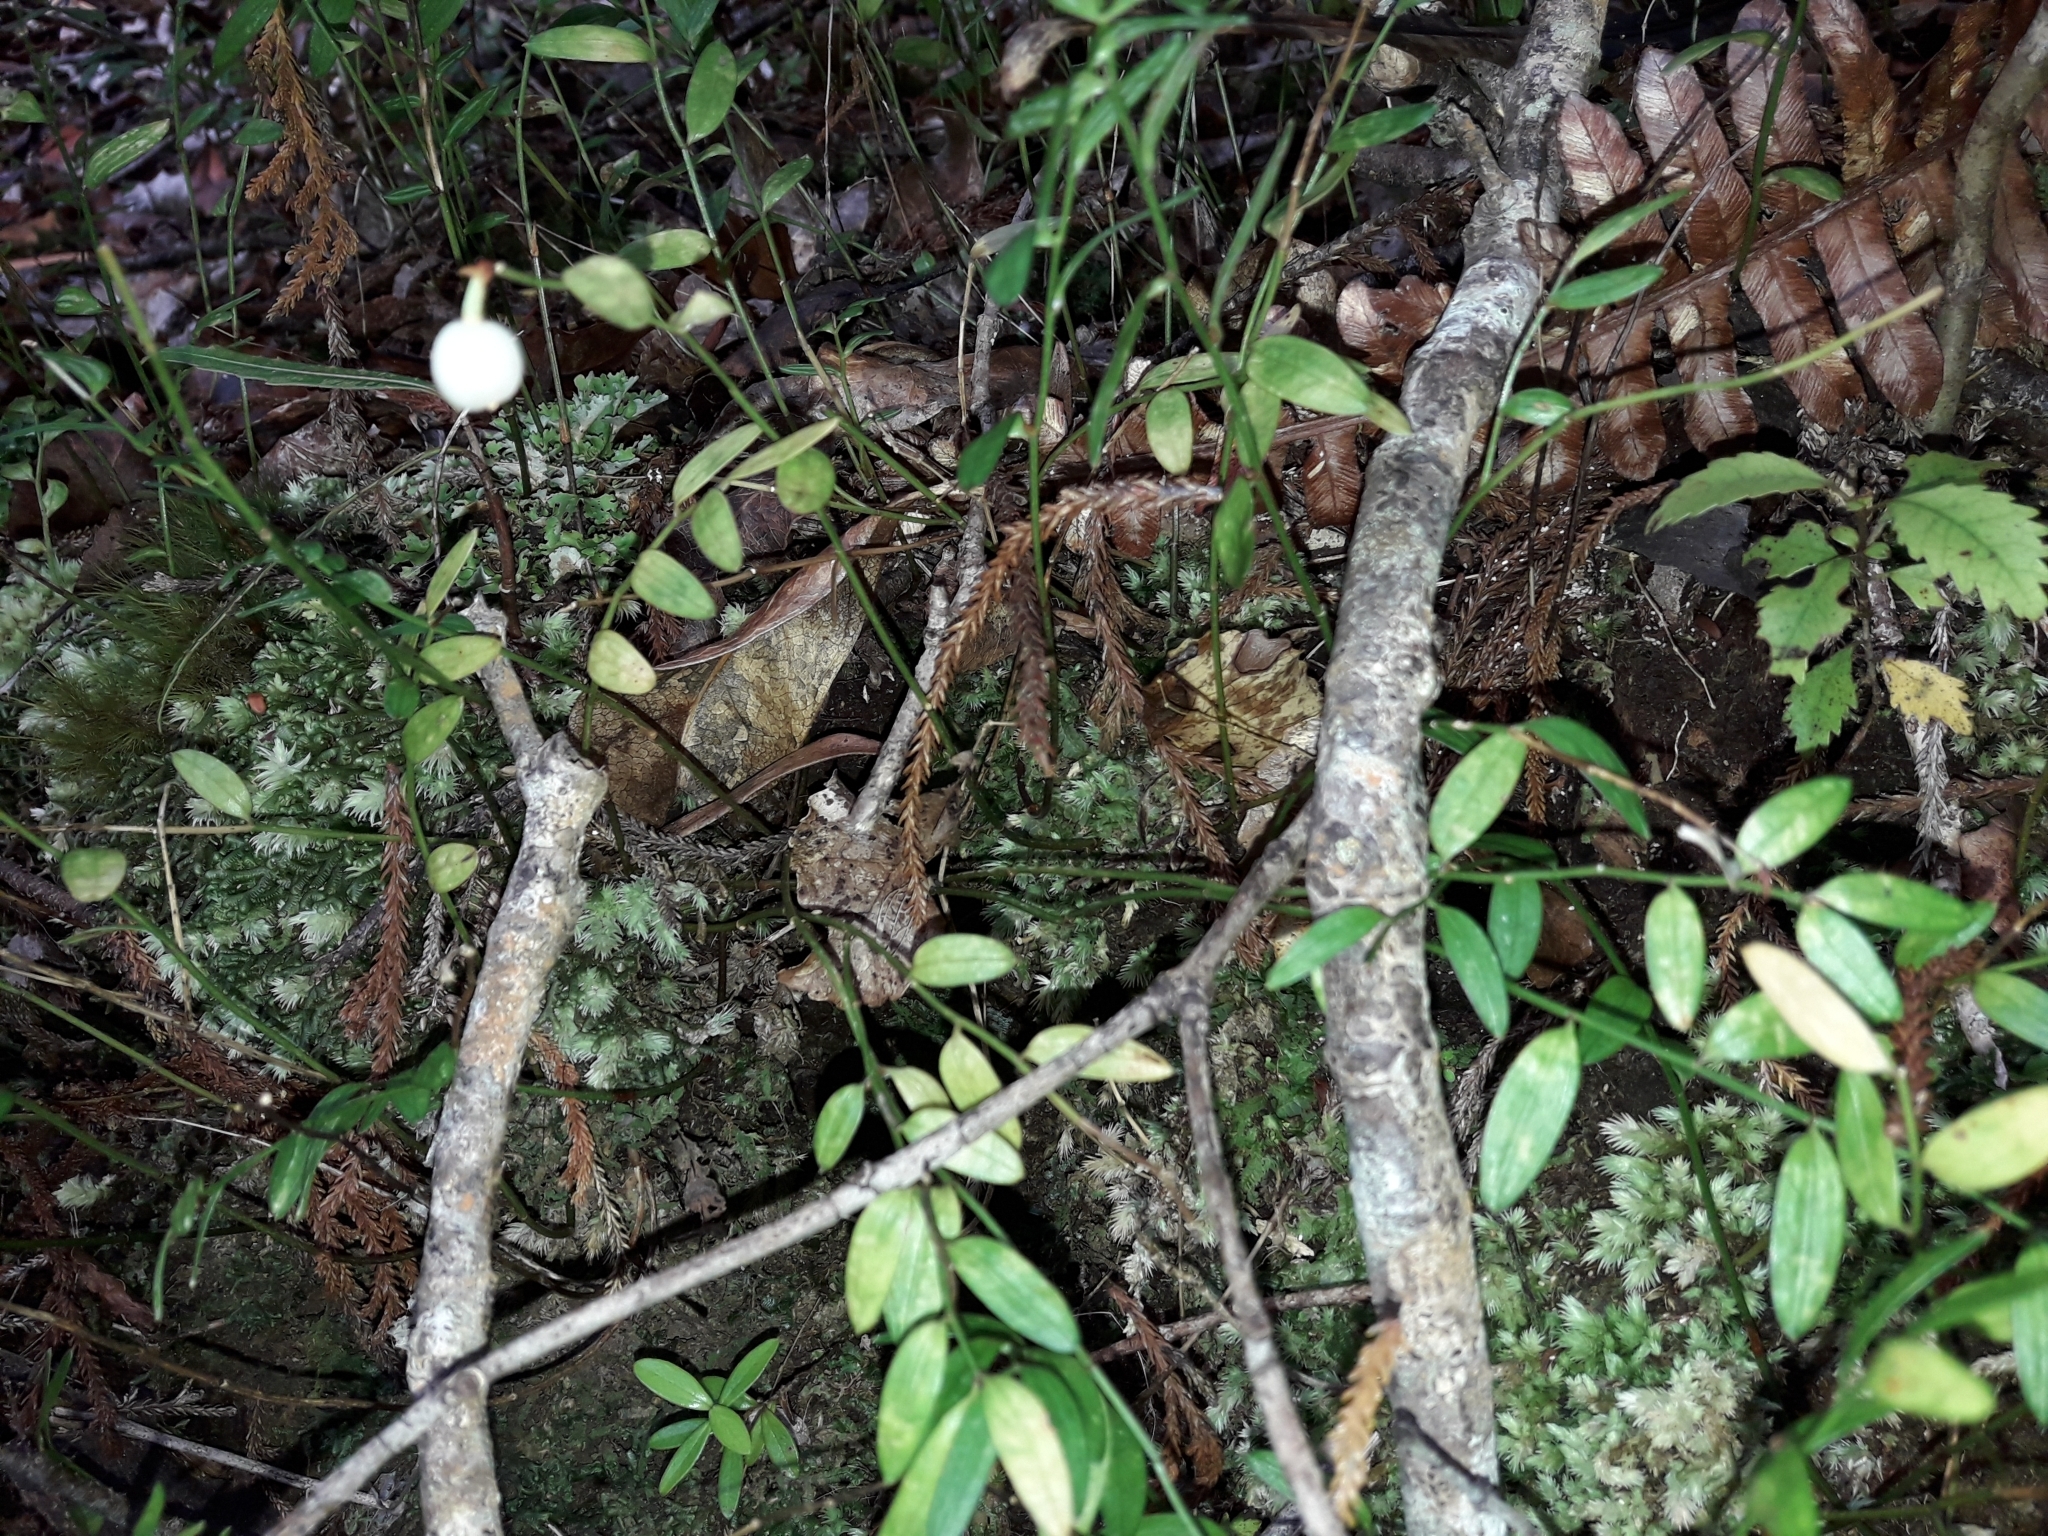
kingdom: Plantae
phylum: Tracheophyta
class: Liliopsida
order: Liliales
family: Alstroemeriaceae
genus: Luzuriaga
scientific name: Luzuriaga parviflora
